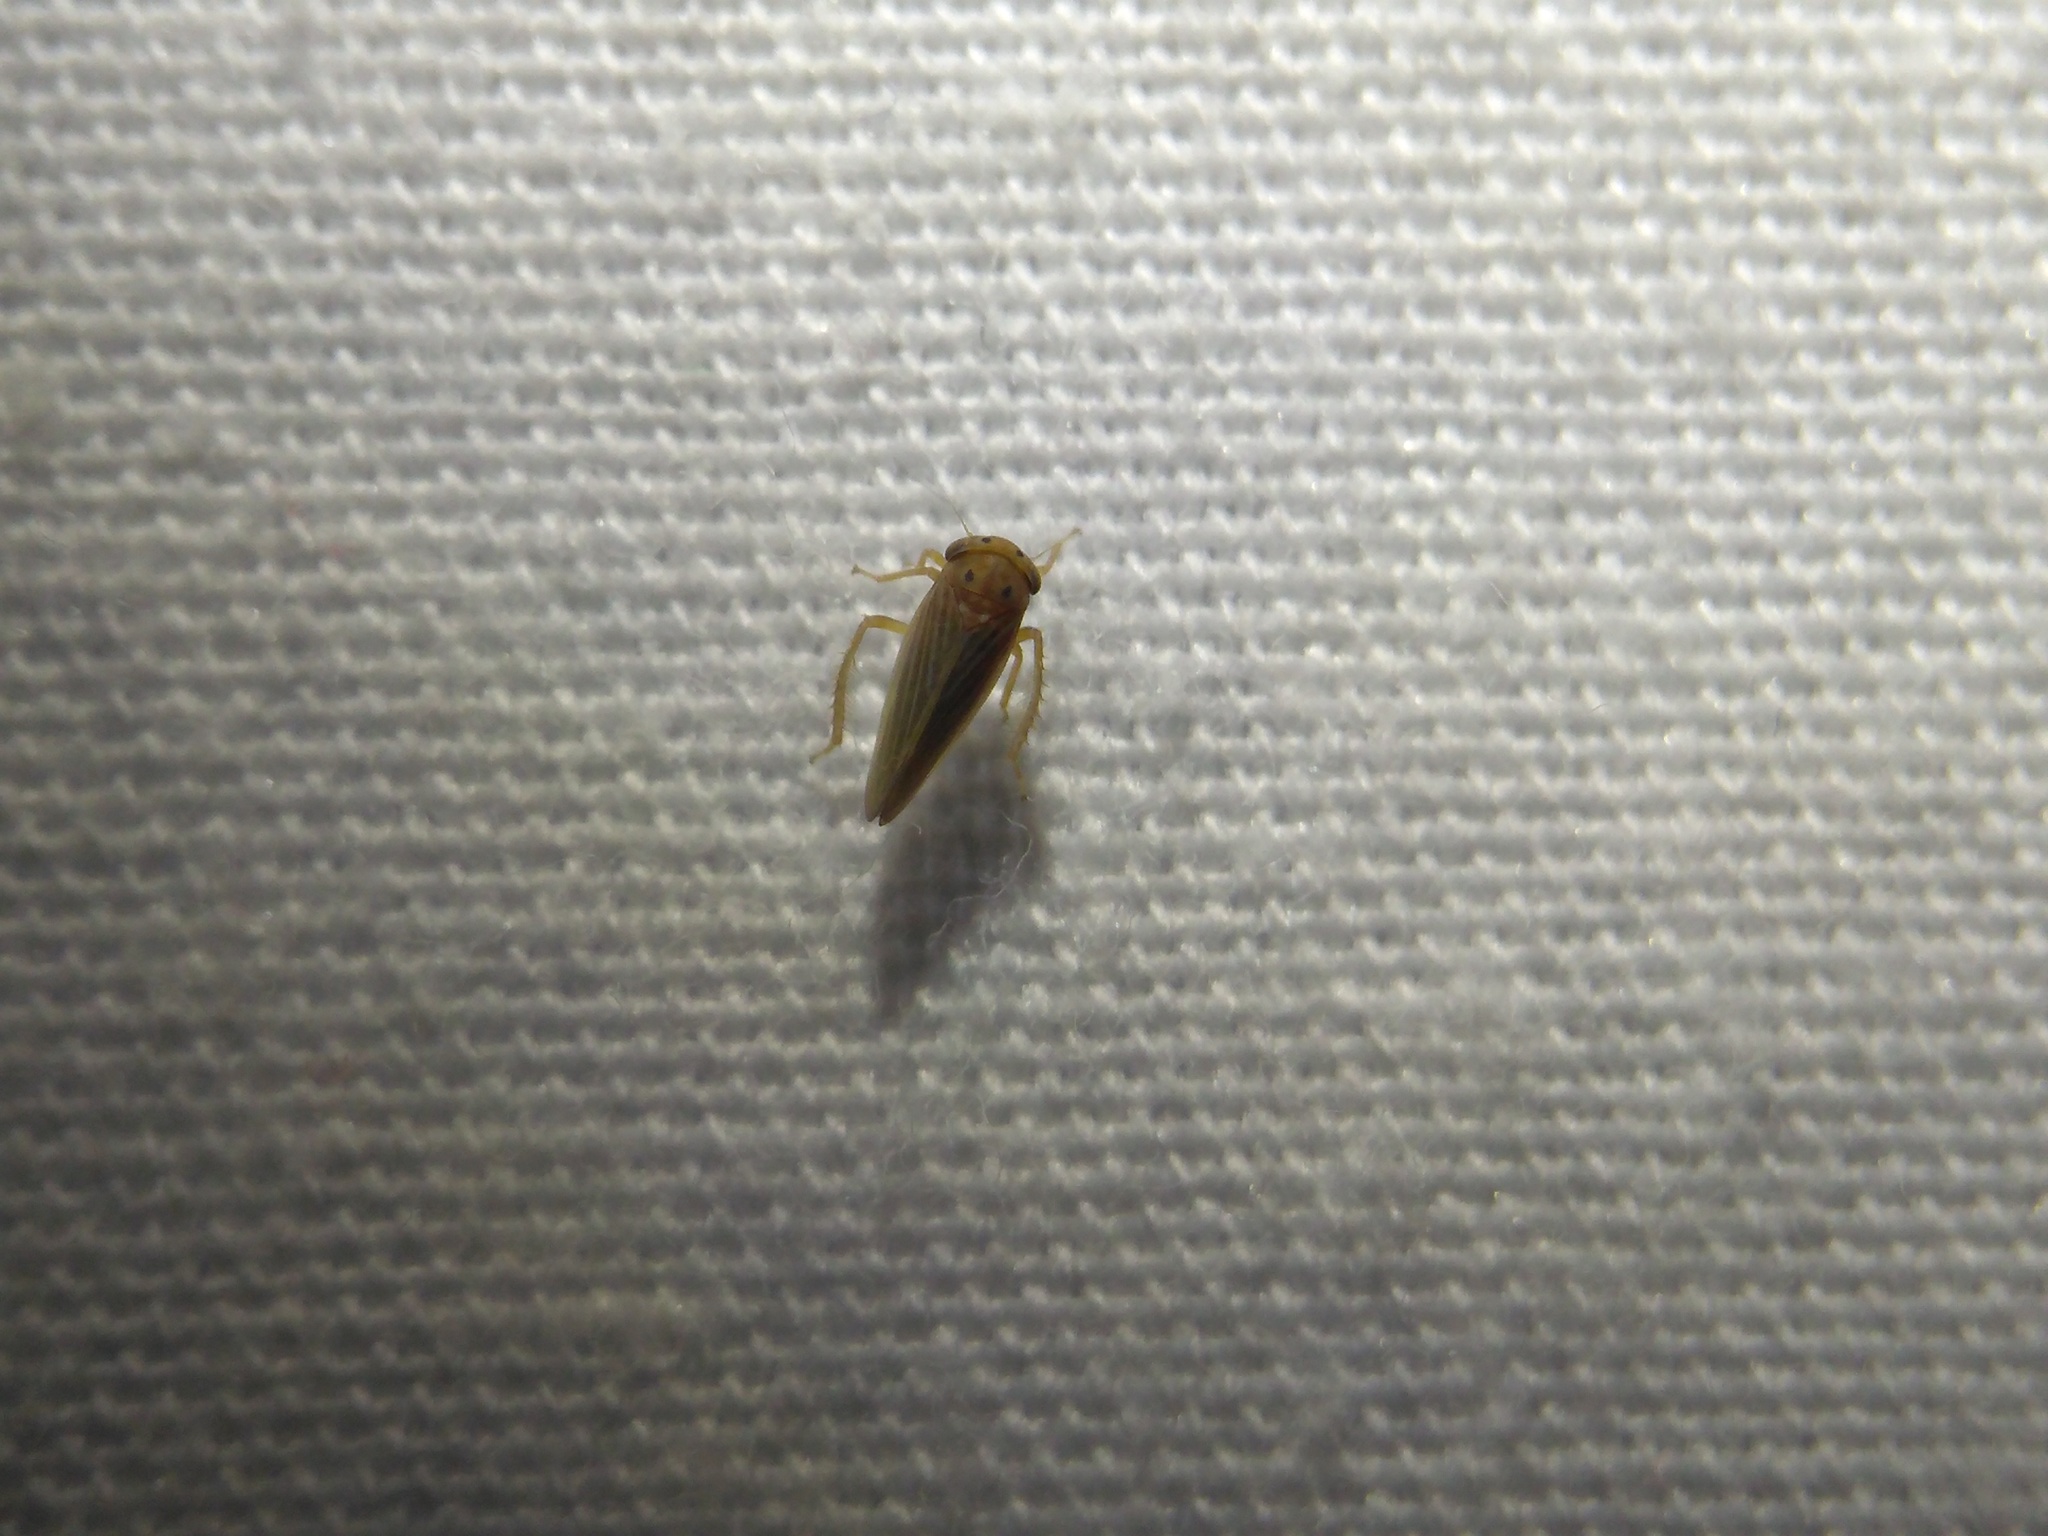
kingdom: Animalia
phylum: Arthropoda
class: Insecta
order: Hemiptera
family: Cicadellidae
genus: Agallia
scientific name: Agallia constricta
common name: The constricted leafhopper
